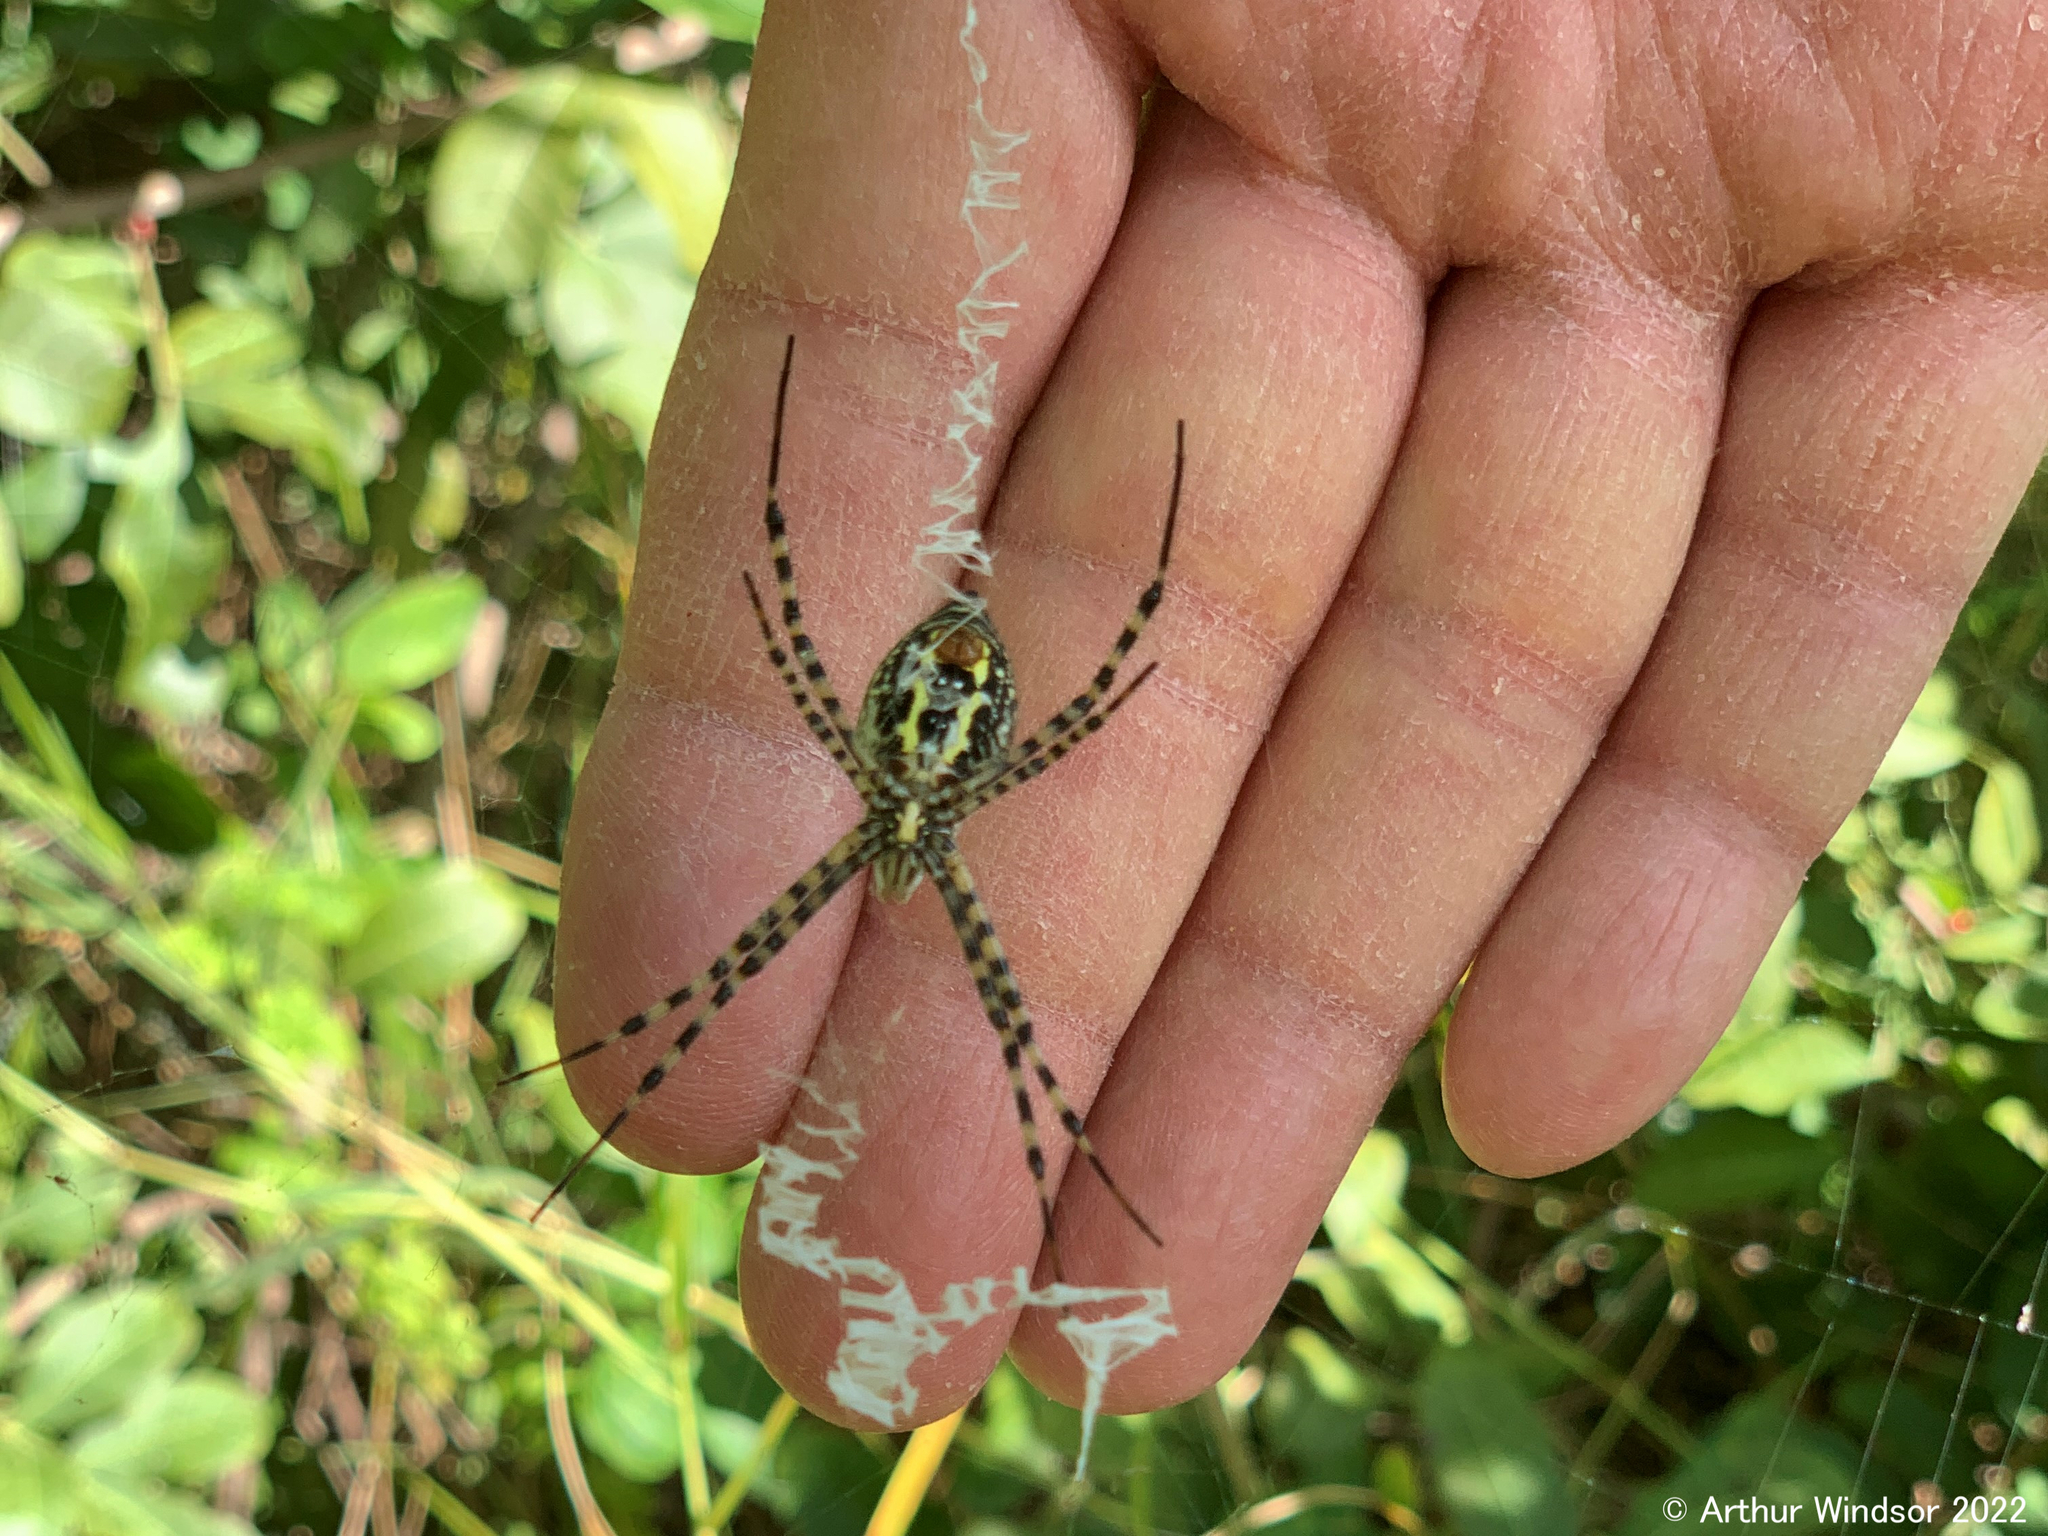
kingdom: Animalia
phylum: Arthropoda
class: Arachnida
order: Araneae
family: Araneidae
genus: Argiope
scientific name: Argiope trifasciata
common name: Banded garden spider
